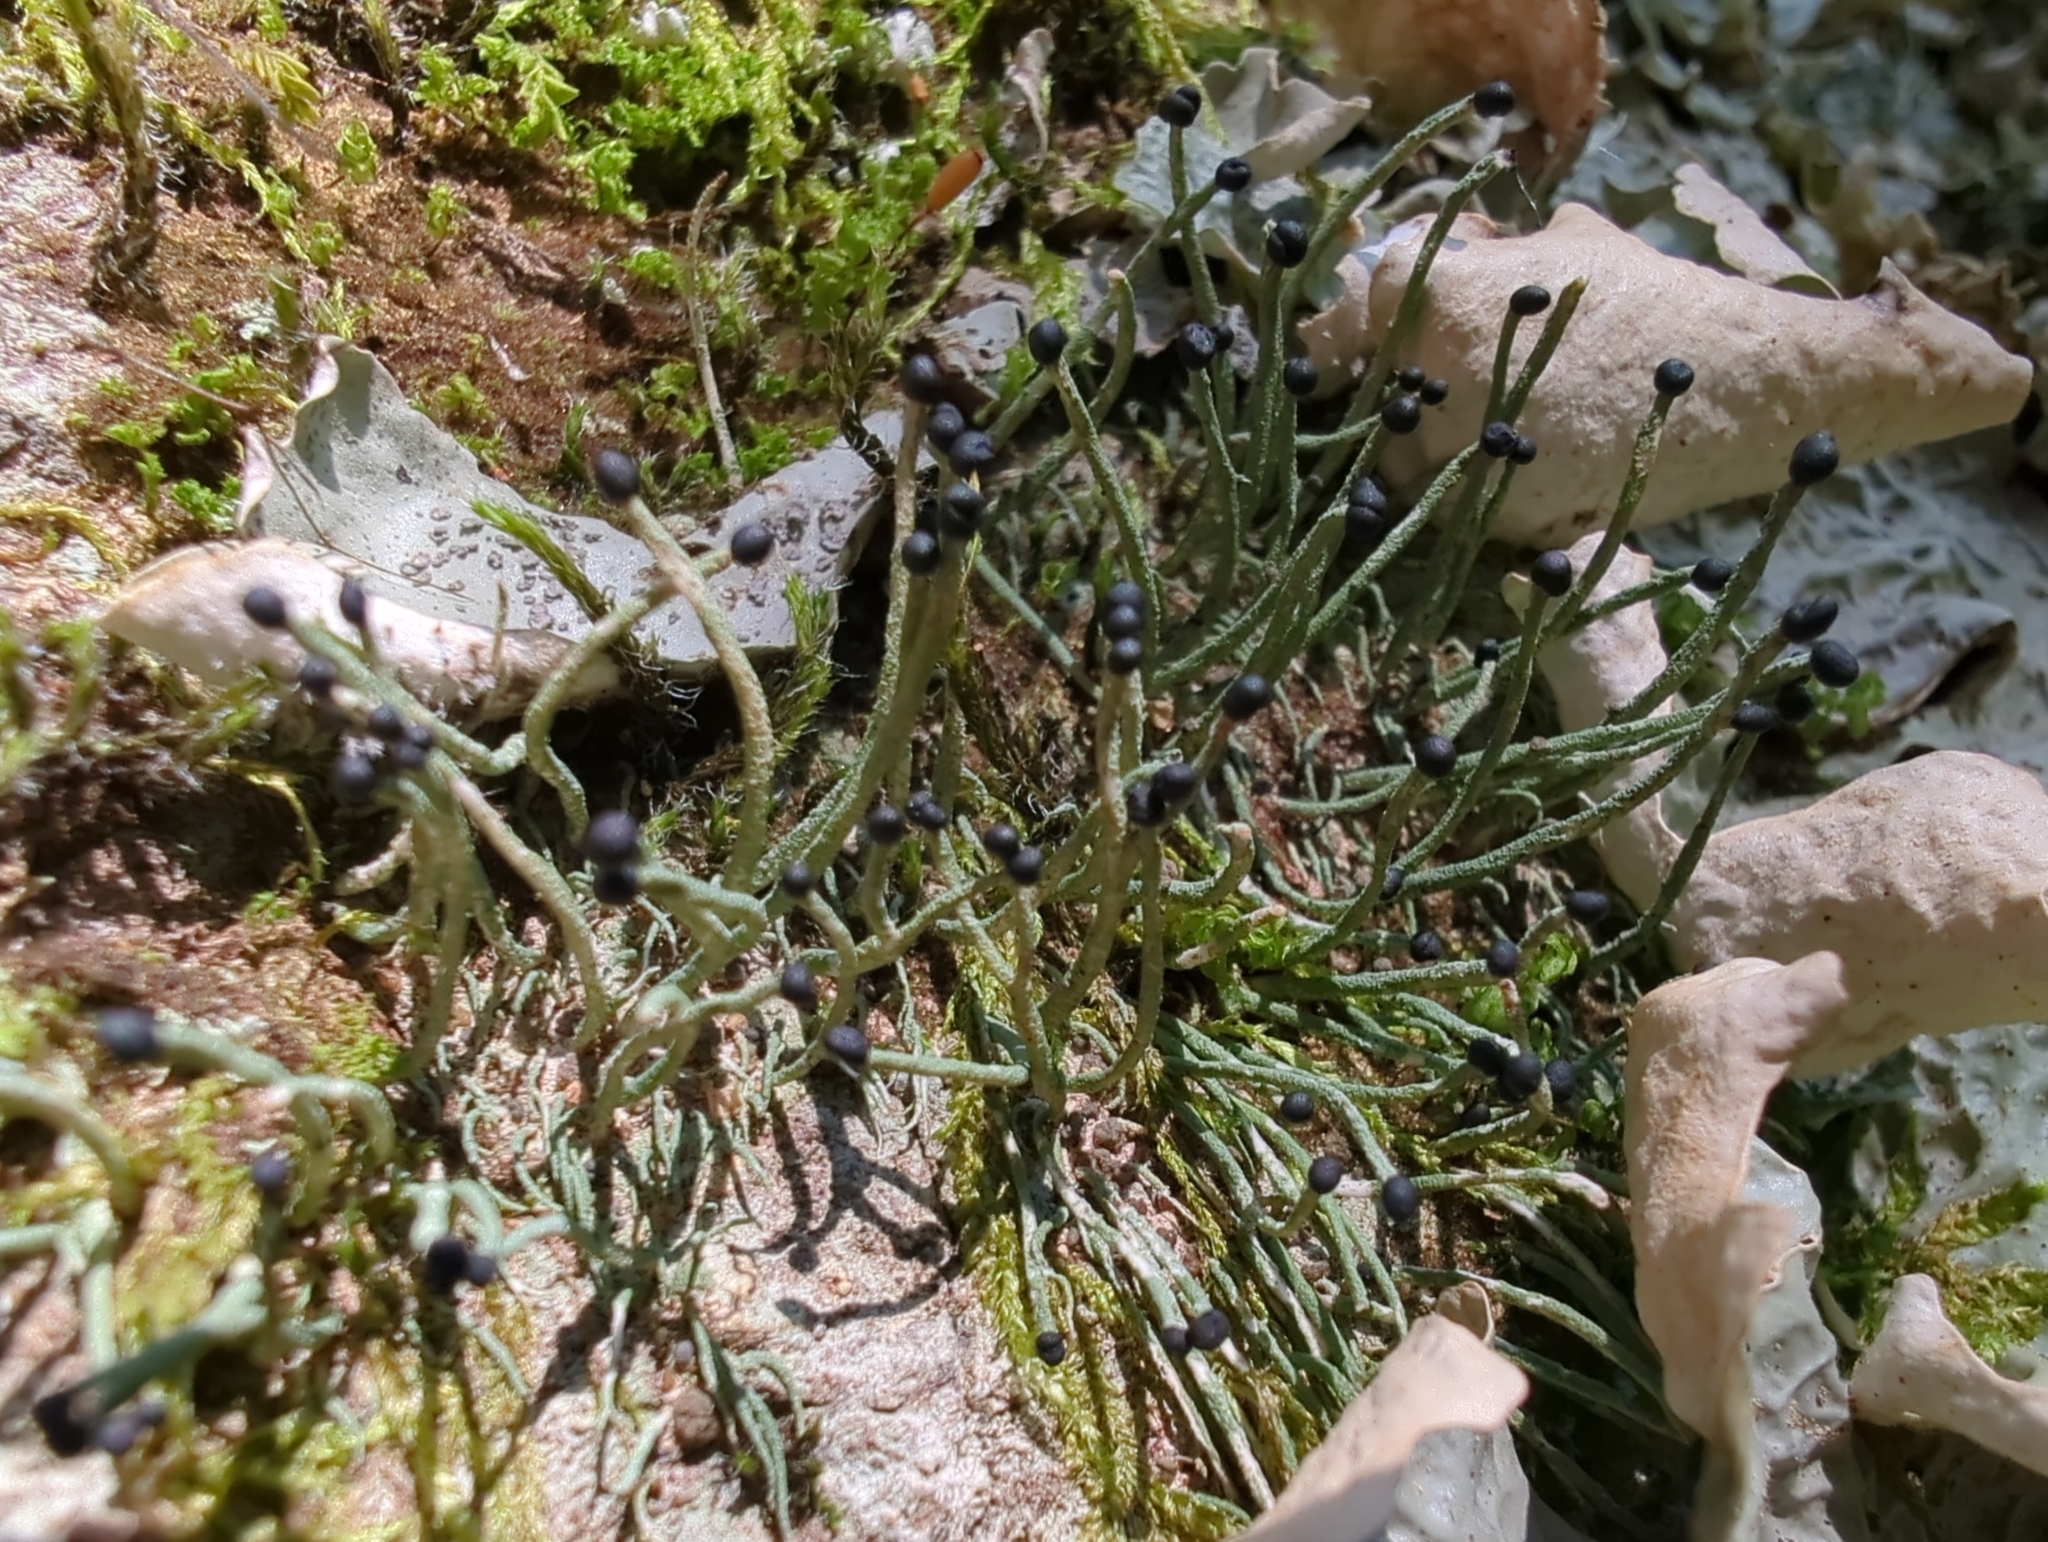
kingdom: Fungi
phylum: Ascomycota
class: Lecanoromycetes
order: Lecanorales
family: Cladoniaceae
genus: Pilophorus
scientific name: Pilophorus acicularis
